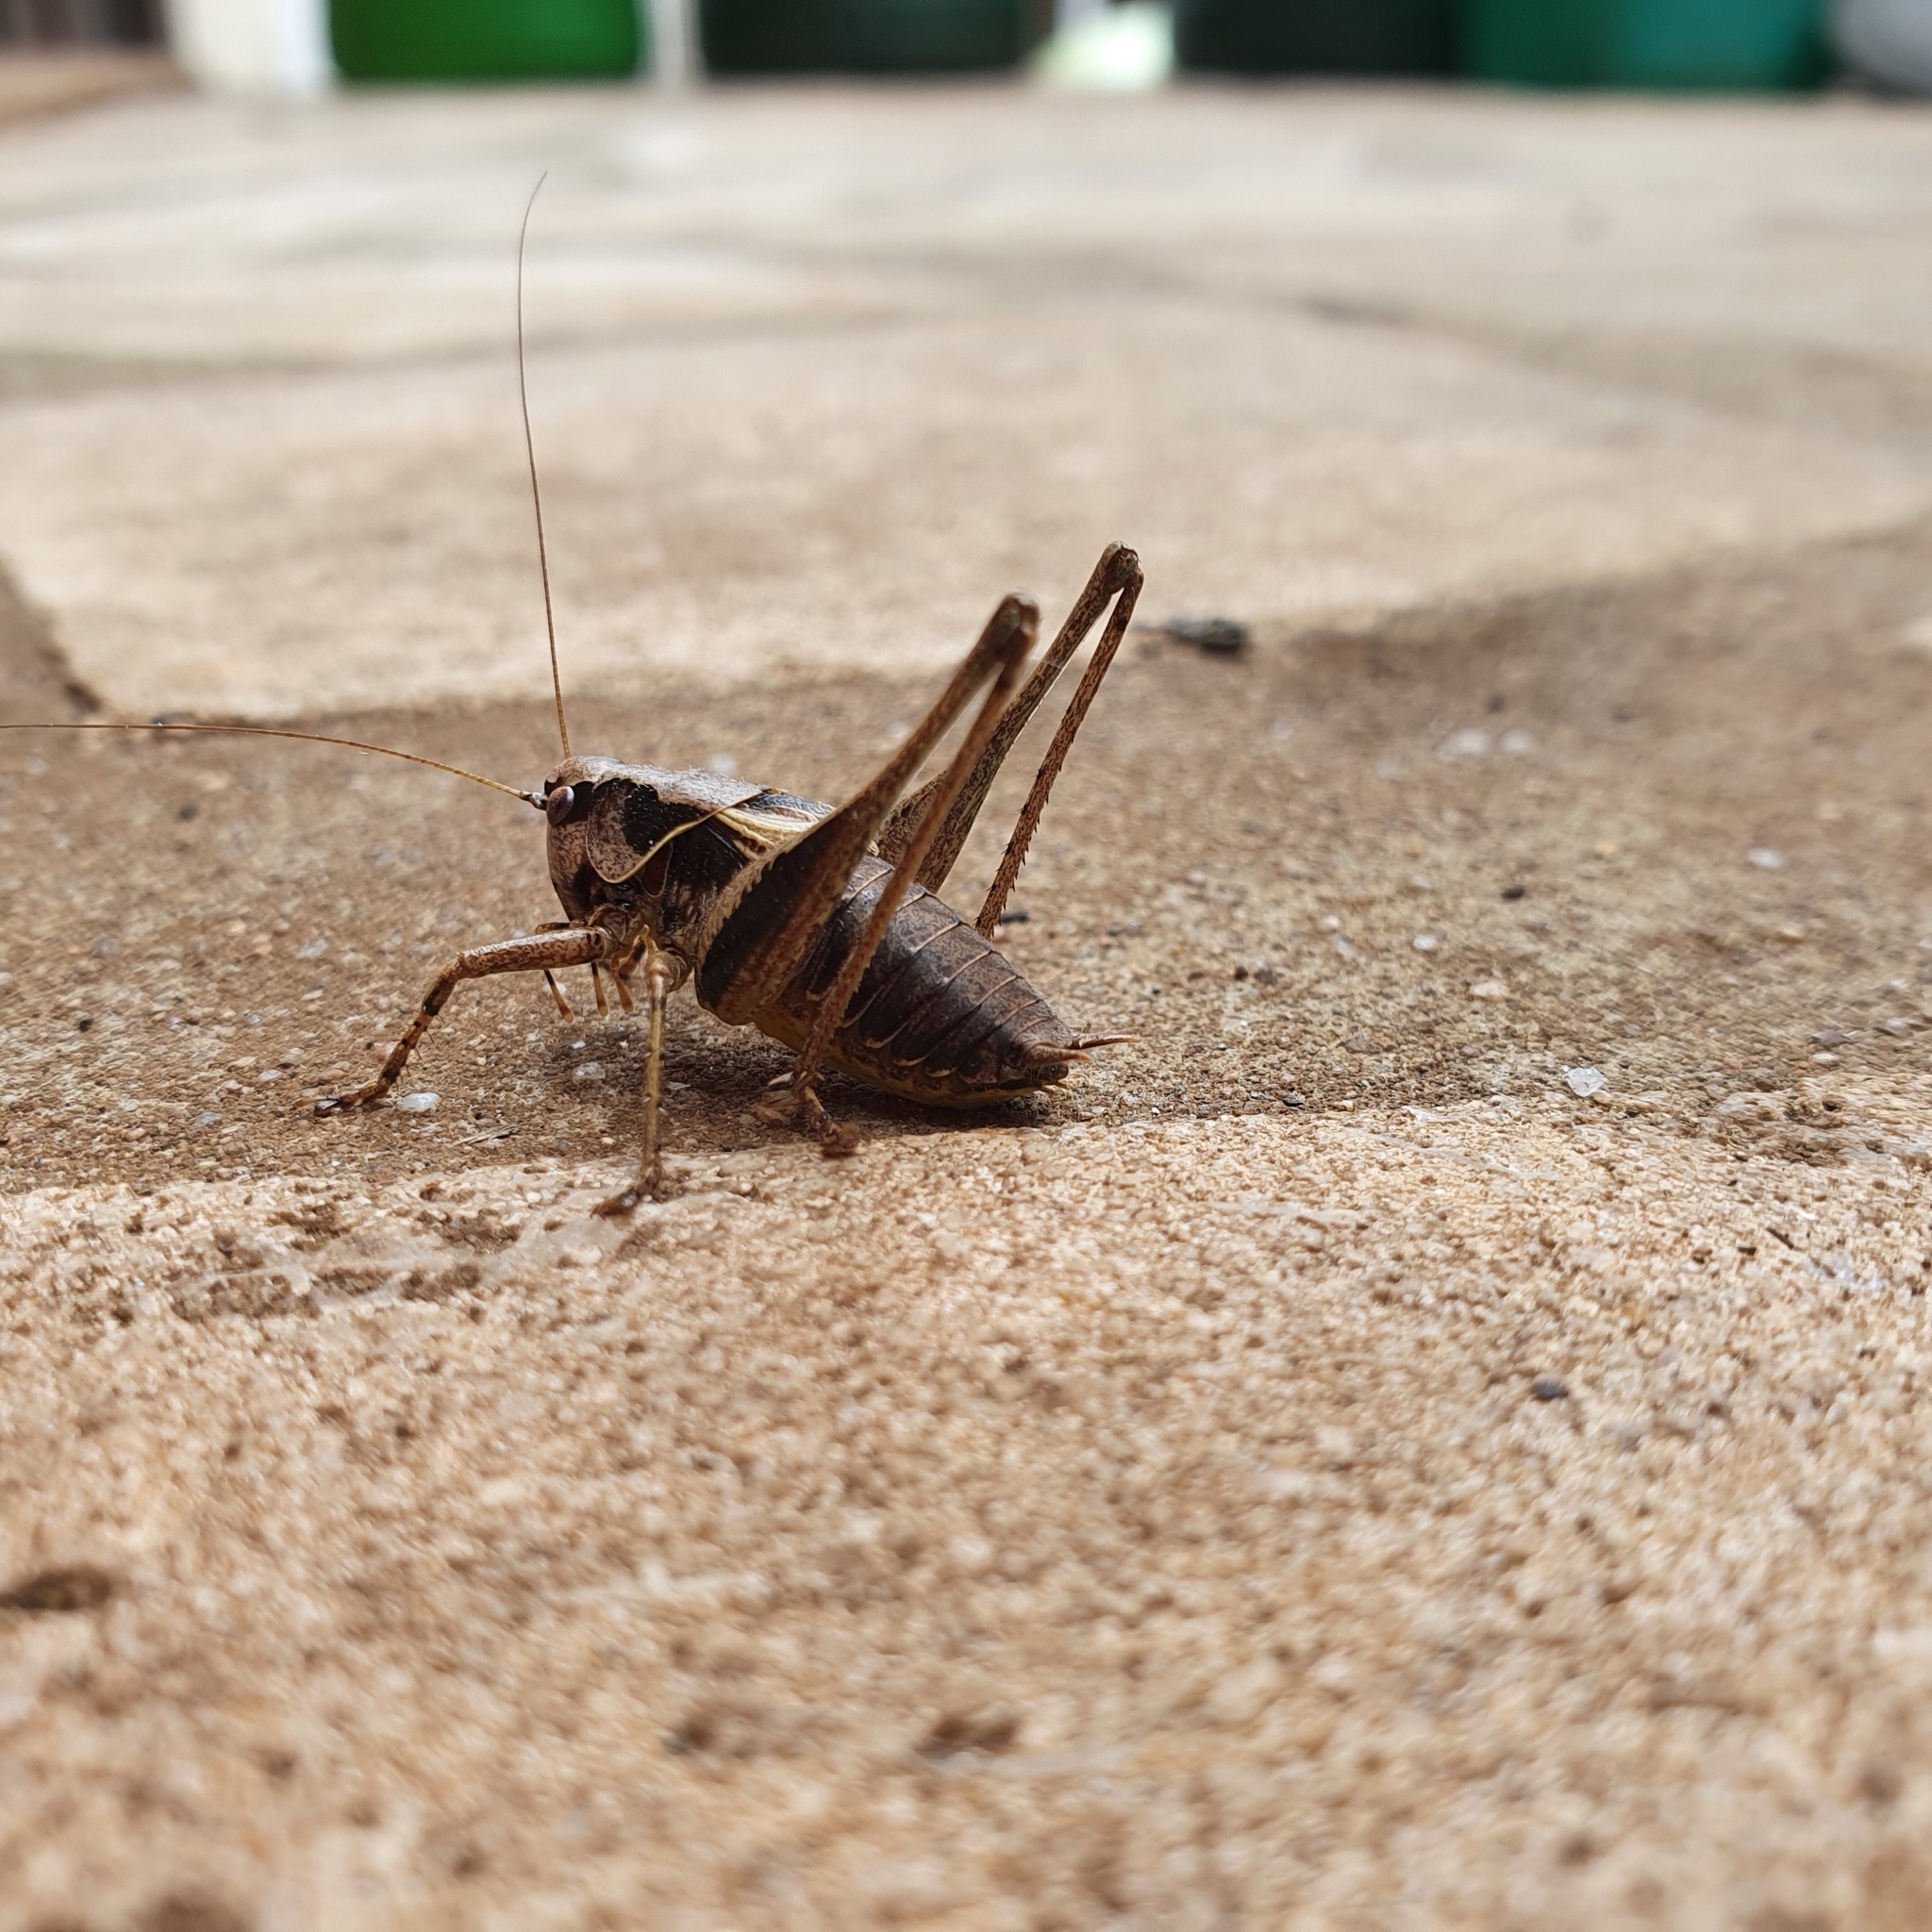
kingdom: Animalia
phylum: Arthropoda
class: Insecta
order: Orthoptera
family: Tettigoniidae
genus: Pholidoptera
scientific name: Pholidoptera griseoaptera
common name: Dark bush-cricket
